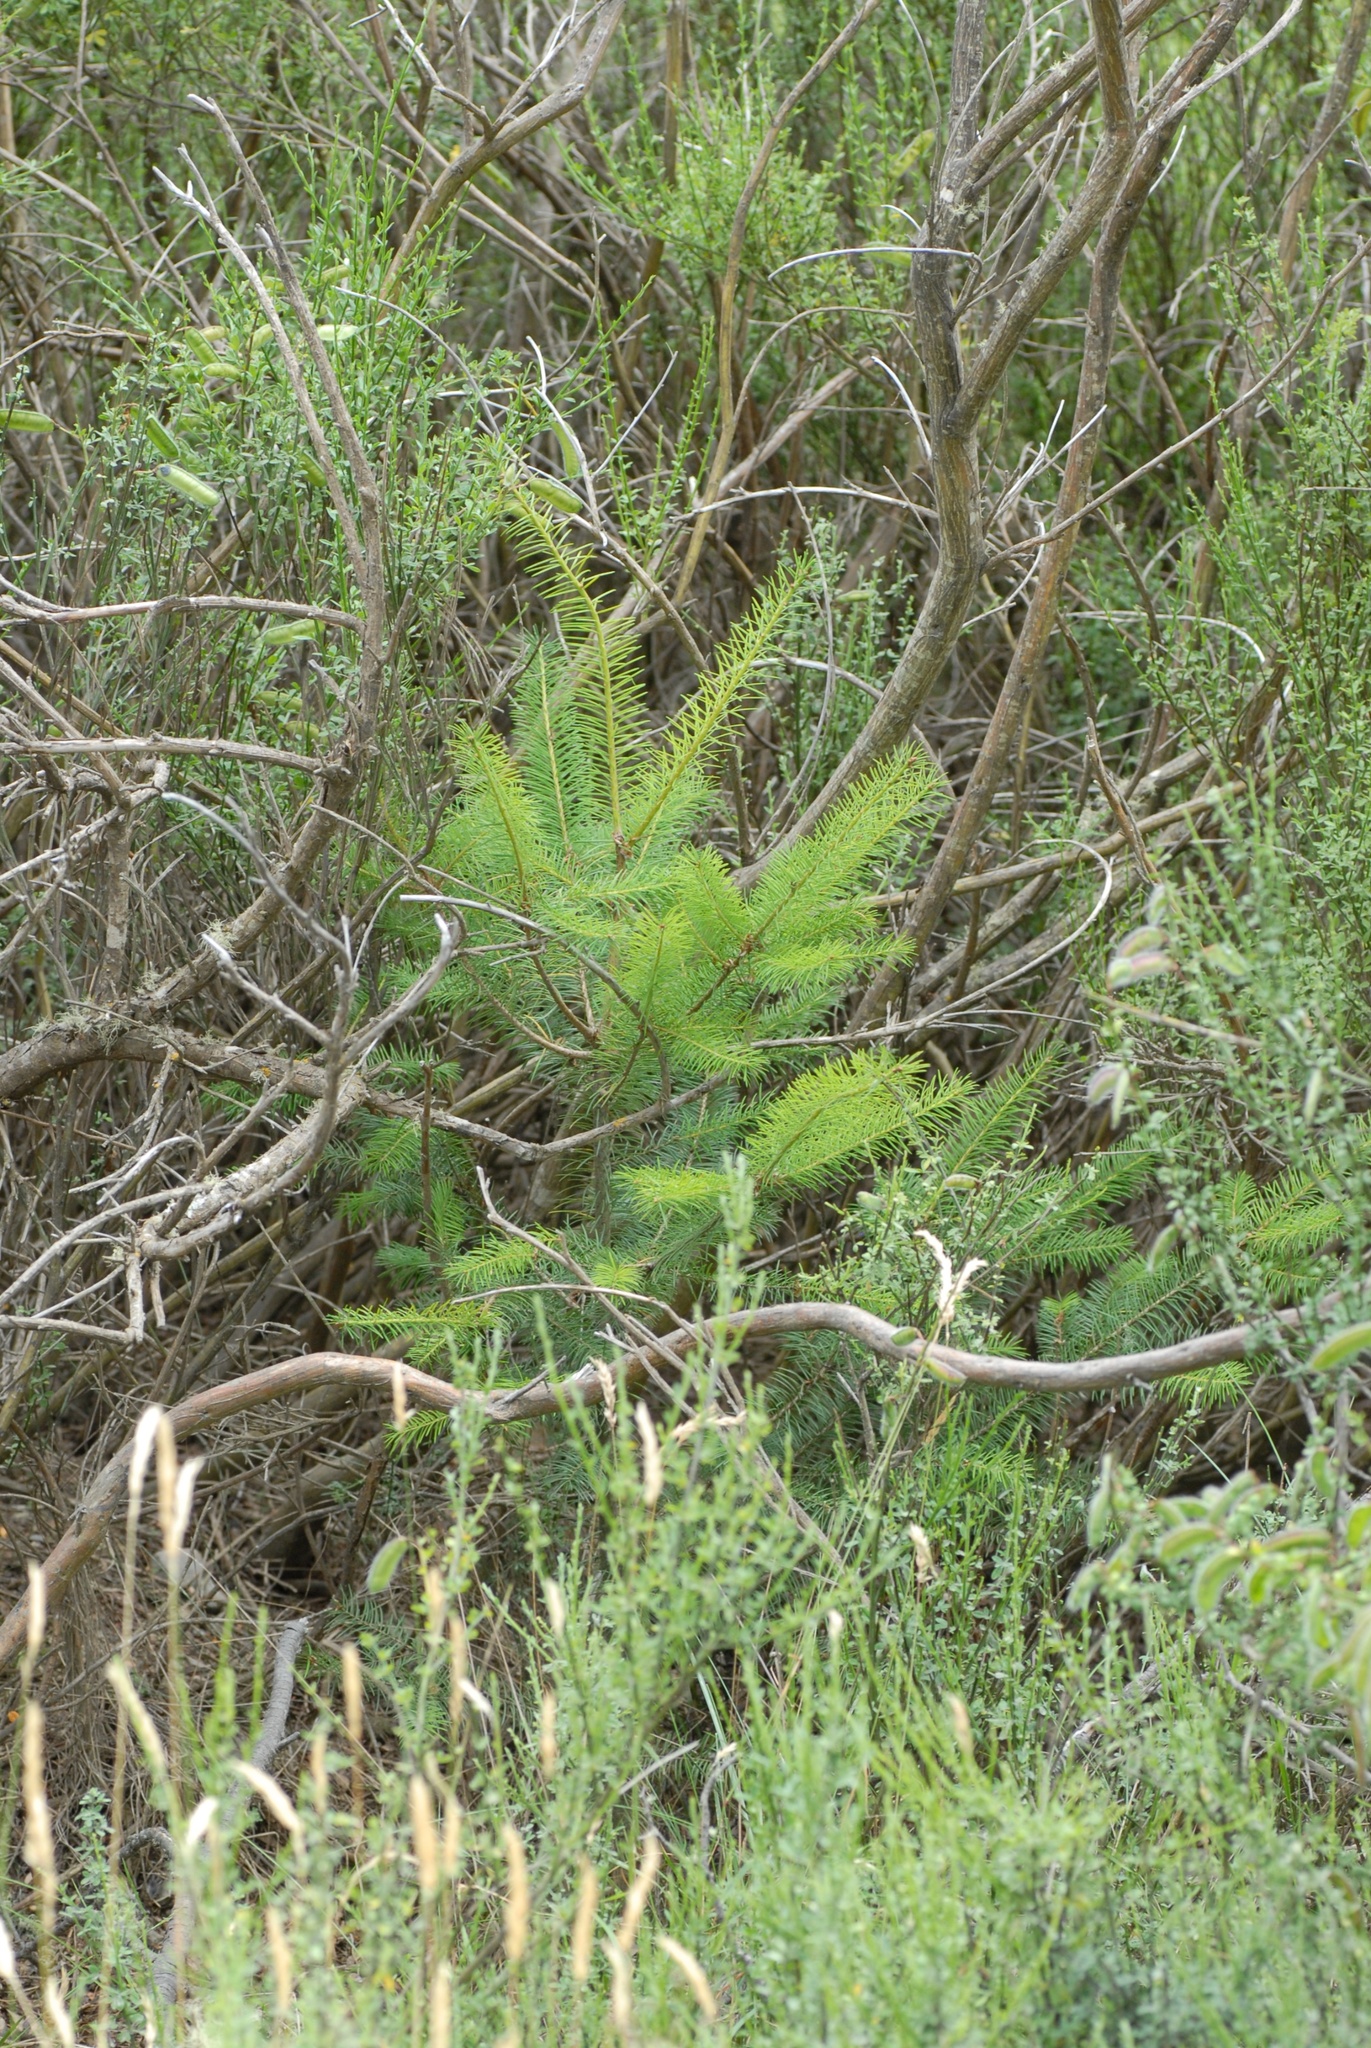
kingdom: Plantae
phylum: Tracheophyta
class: Pinopsida
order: Pinales
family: Pinaceae
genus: Pseudotsuga
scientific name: Pseudotsuga menziesii
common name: Douglas fir
